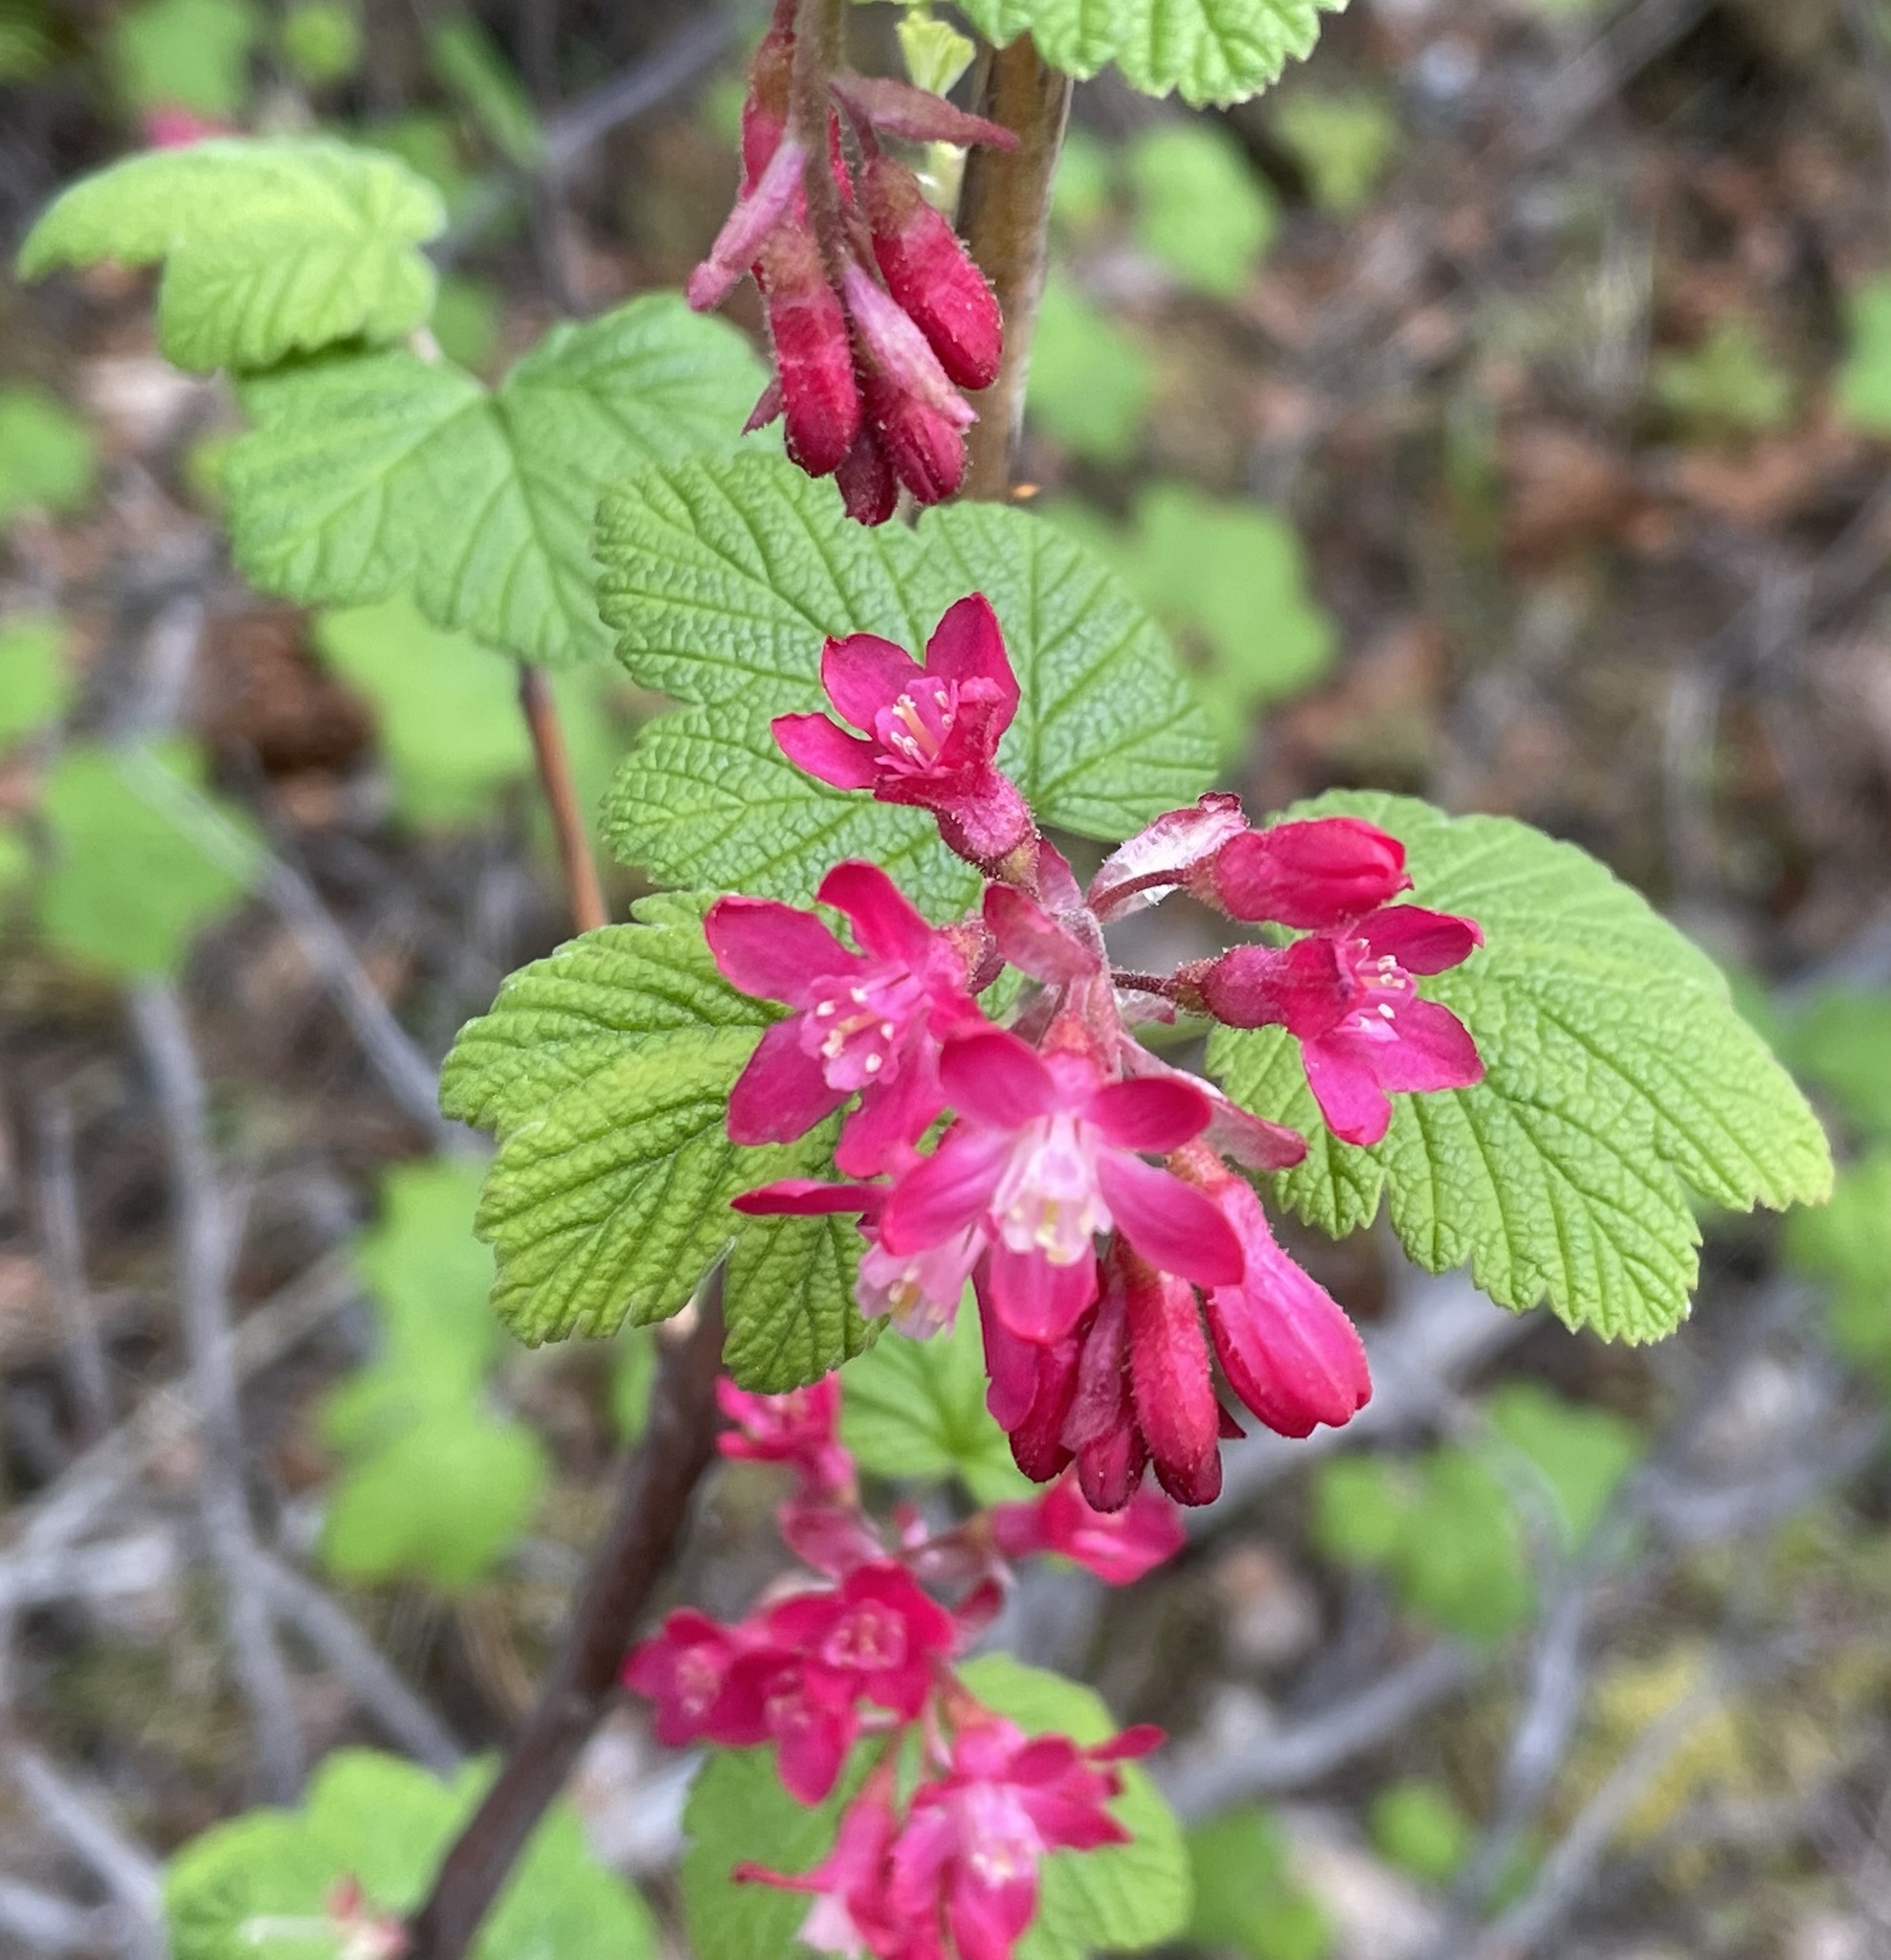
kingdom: Plantae
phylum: Tracheophyta
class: Magnoliopsida
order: Saxifragales
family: Grossulariaceae
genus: Ribes
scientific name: Ribes sanguineum
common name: Flowering currant
